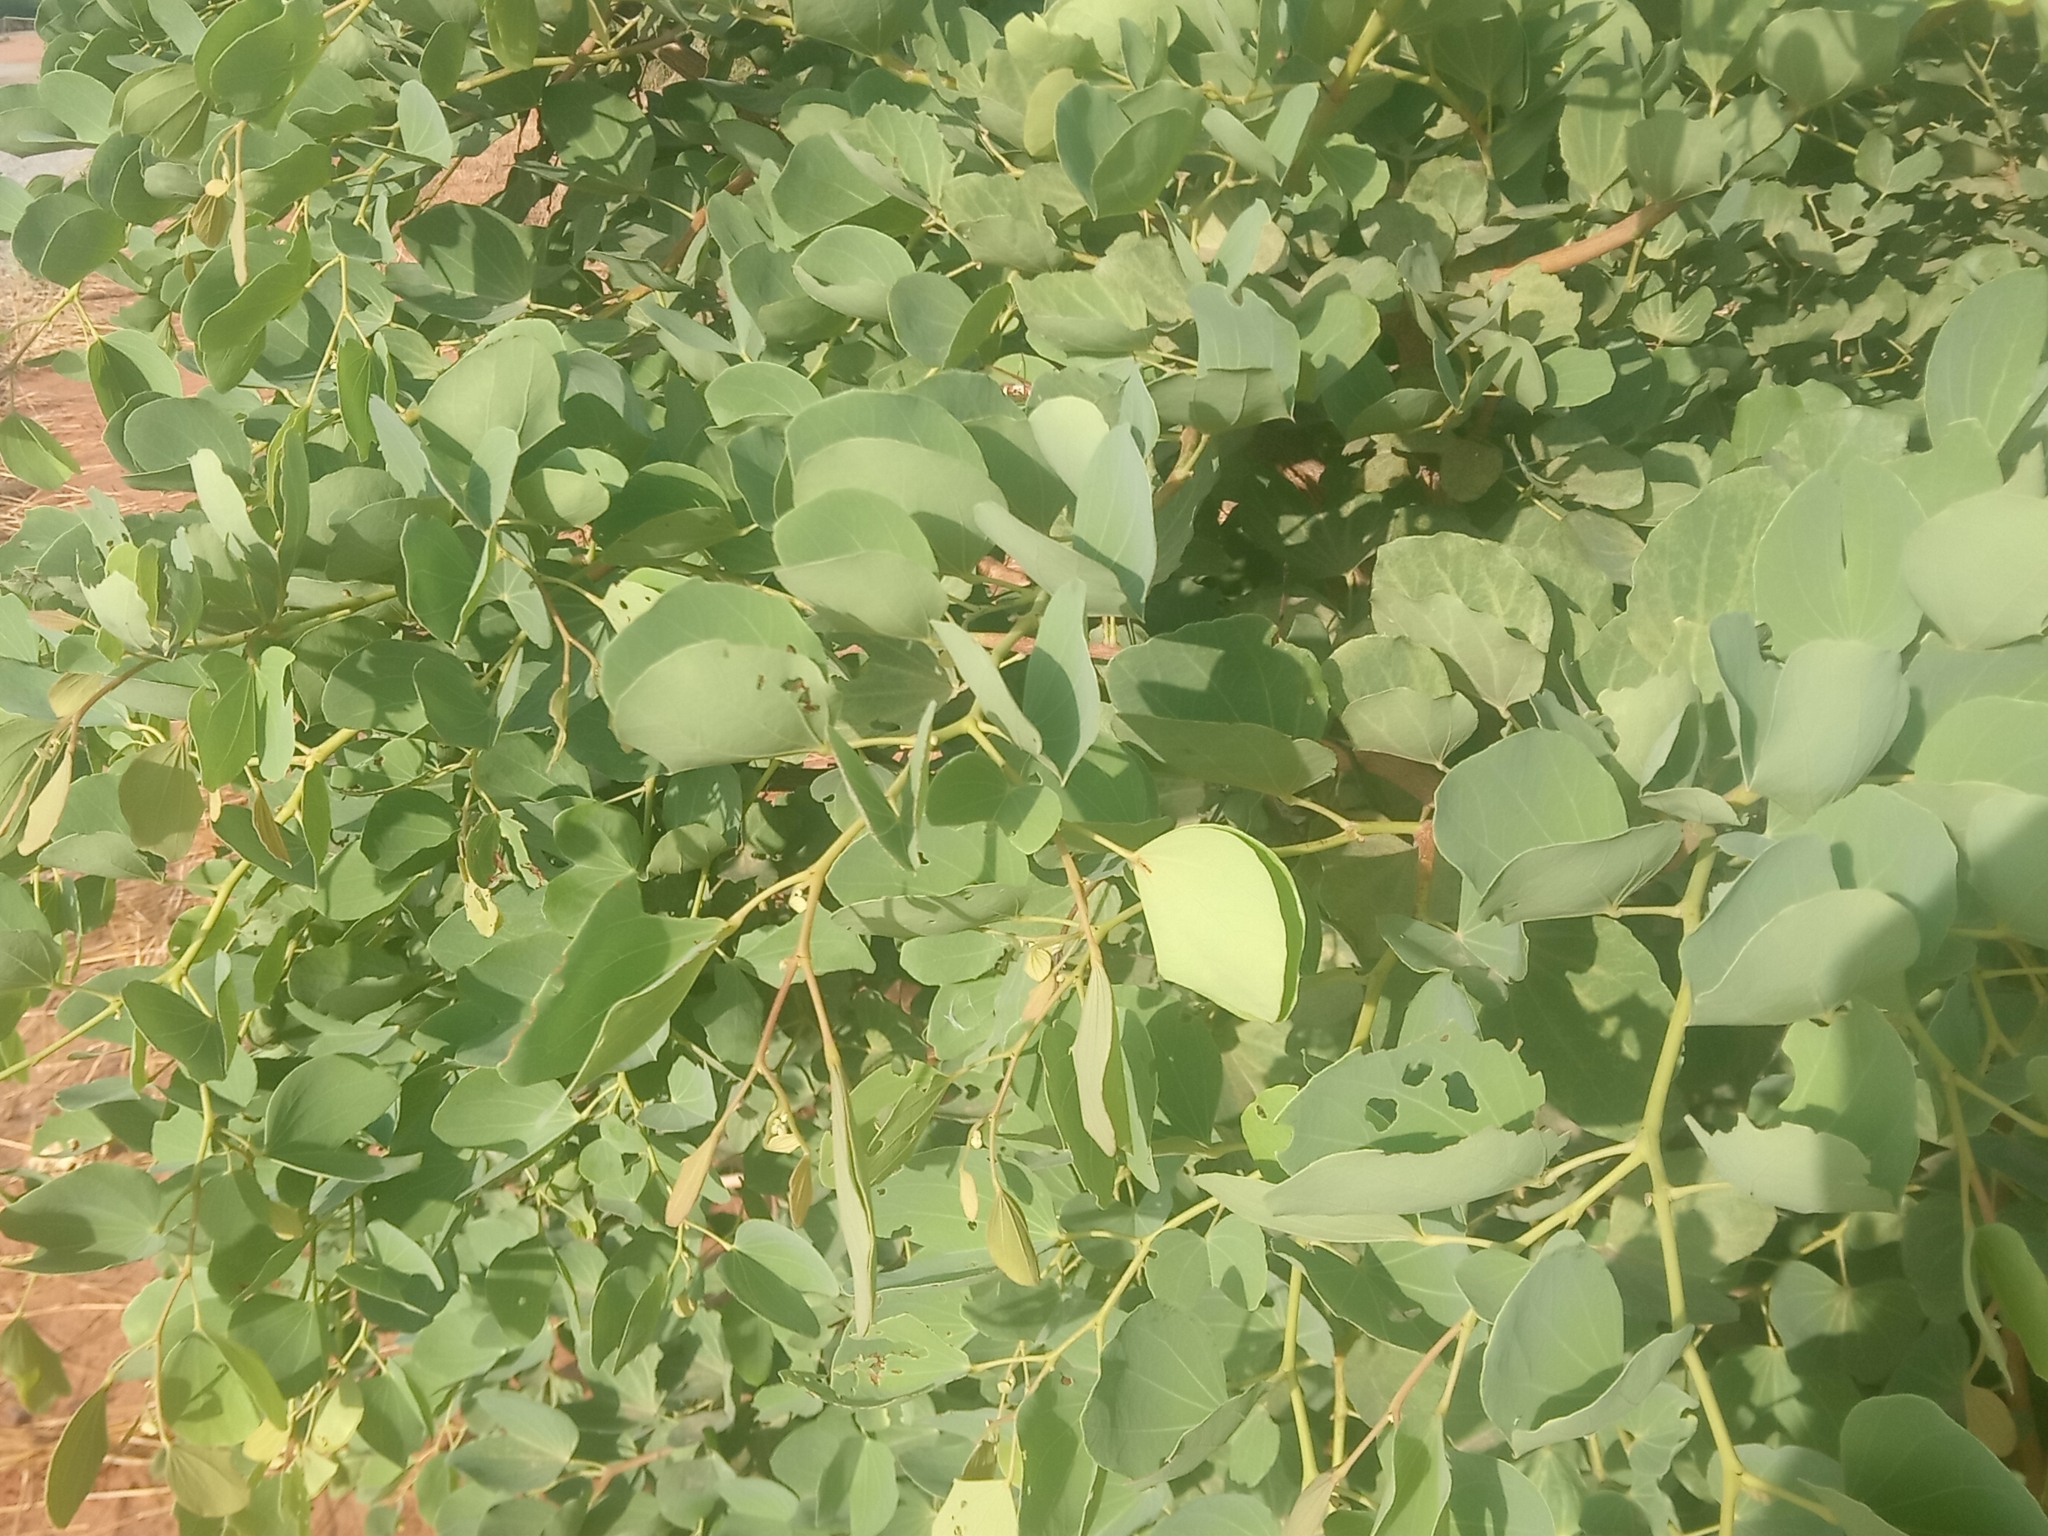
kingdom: Plantae
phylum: Tracheophyta
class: Magnoliopsida
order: Fabales
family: Fabaceae
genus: Piliostigma
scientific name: Piliostigma reticulatum
